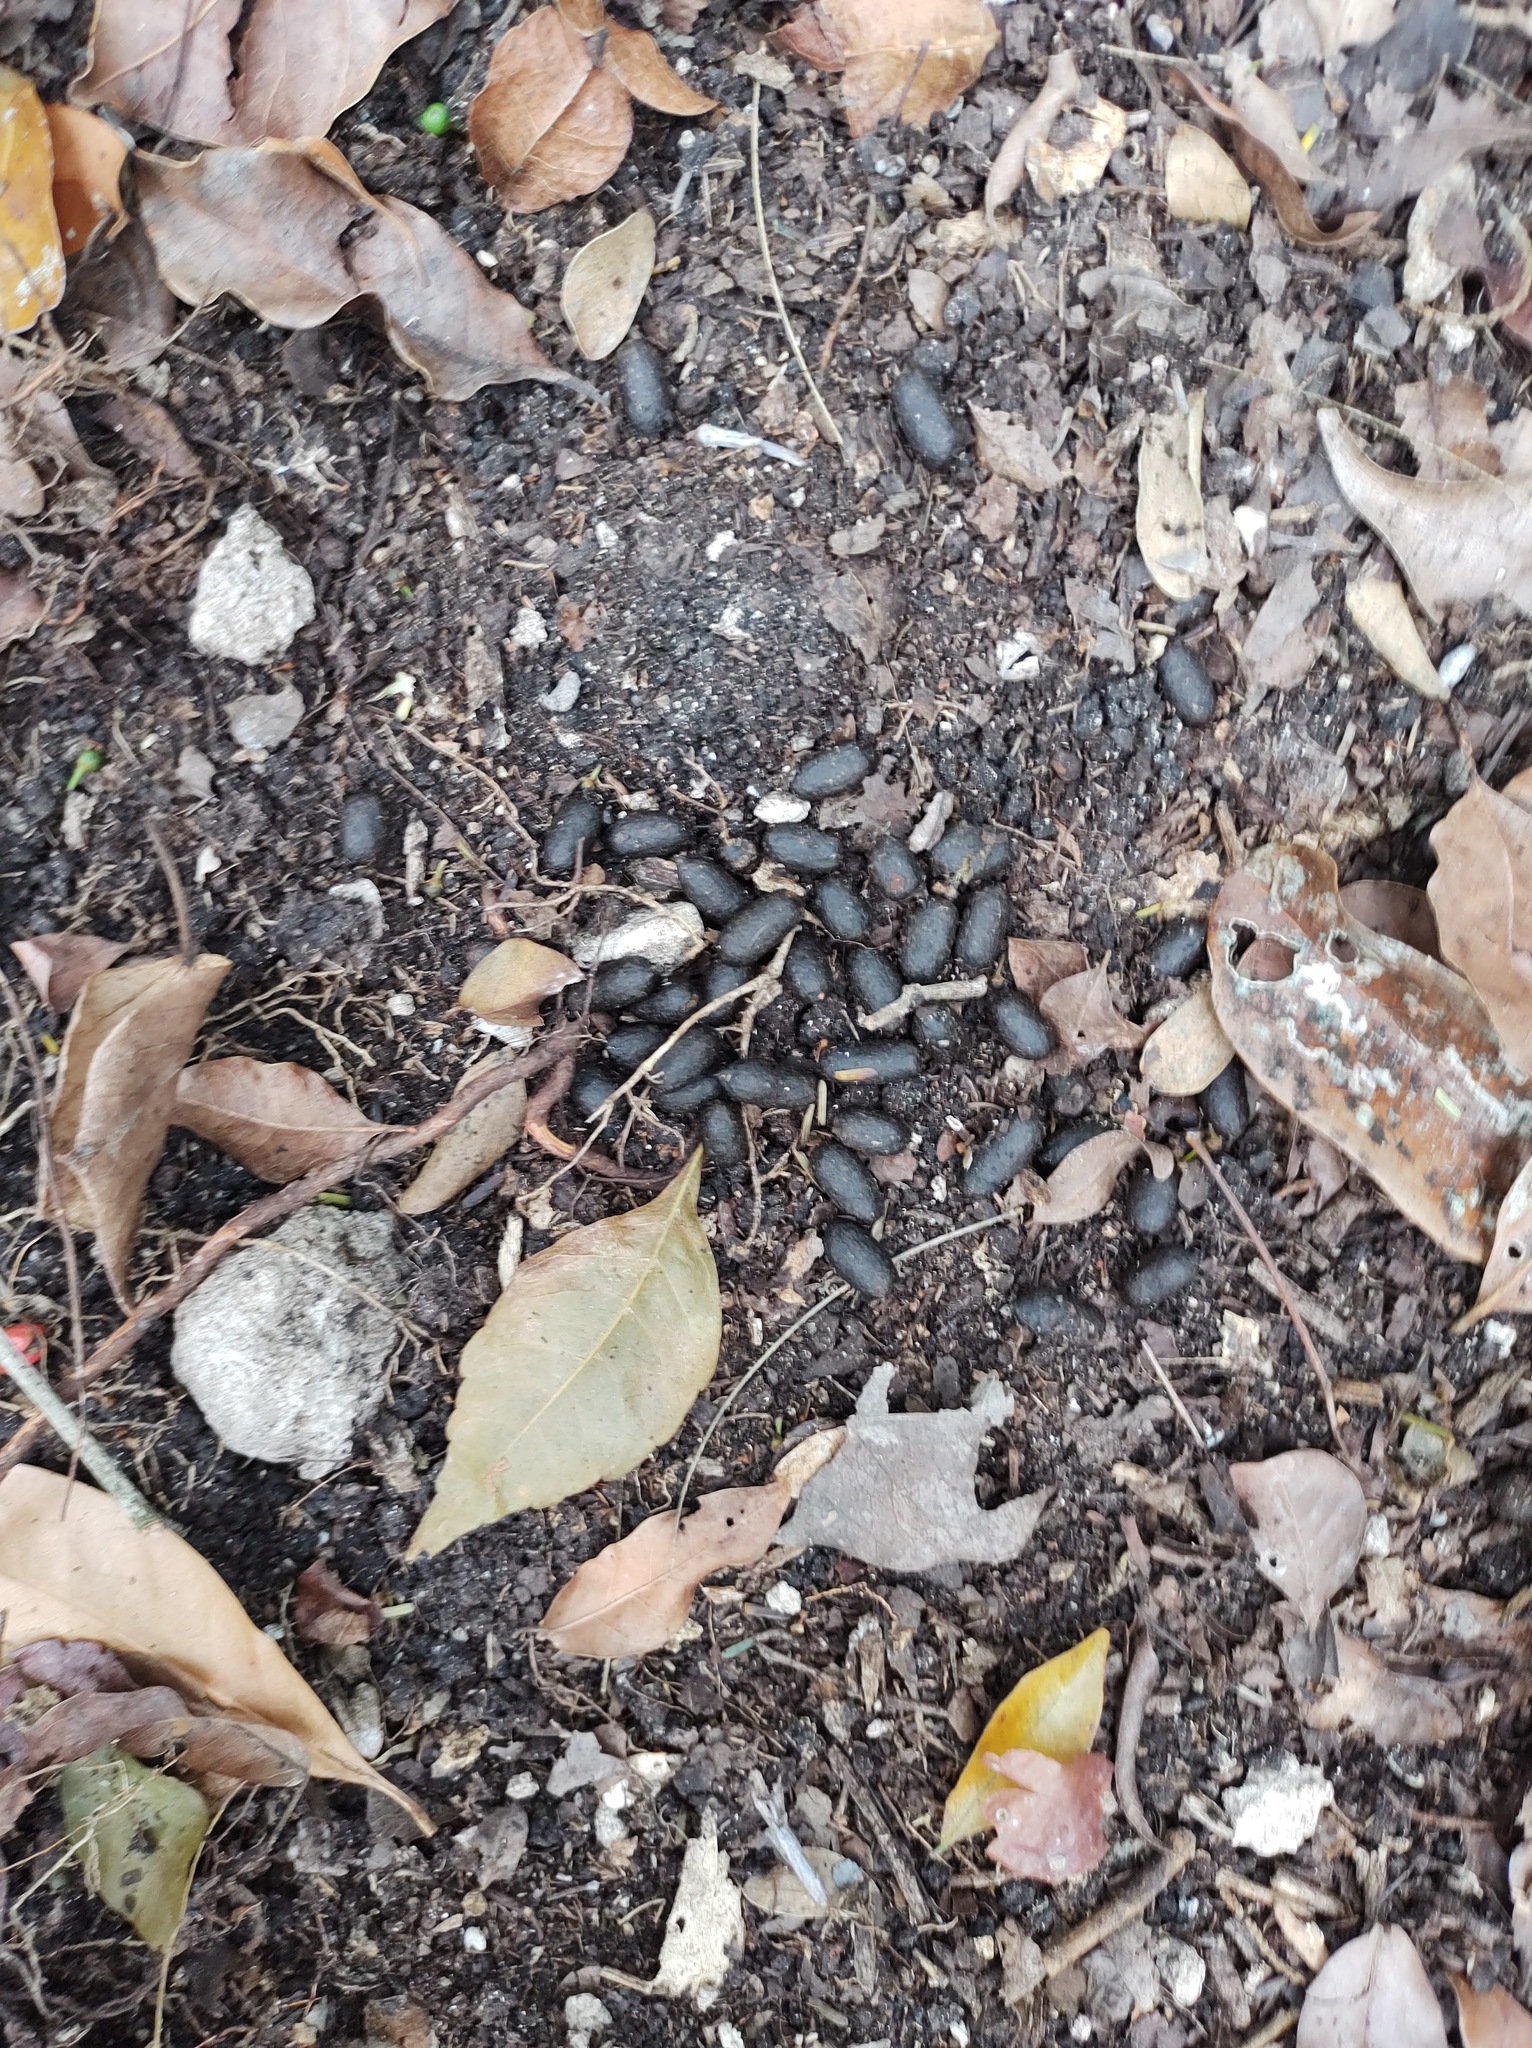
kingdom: Animalia
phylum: Chordata
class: Mammalia
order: Artiodactyla
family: Cervidae
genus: Odocoileus
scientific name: Odocoileus virginianus
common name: White-tailed deer
